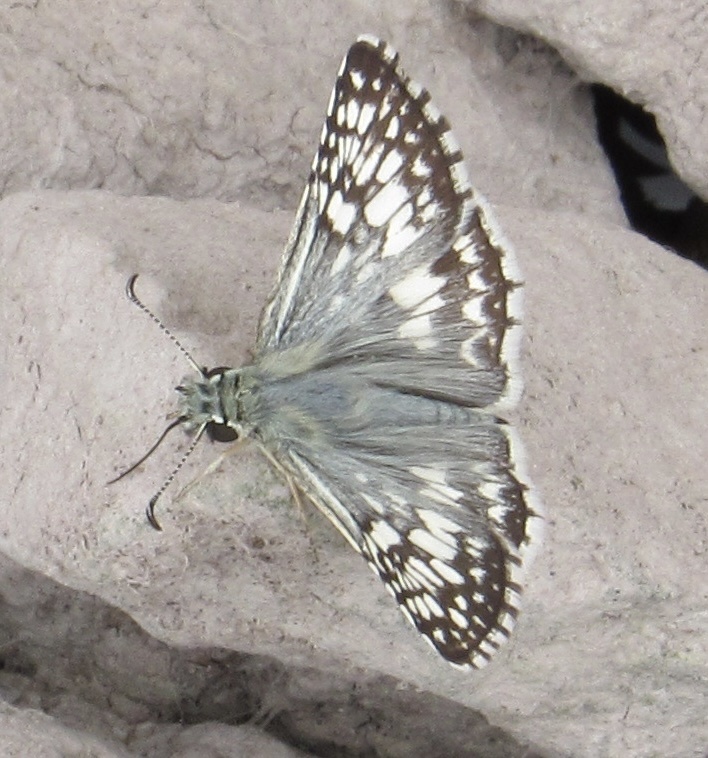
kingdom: Animalia
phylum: Arthropoda
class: Insecta
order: Lepidoptera
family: Hesperiidae
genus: Burnsius
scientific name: Burnsius communis
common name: Common checkered-skipper
